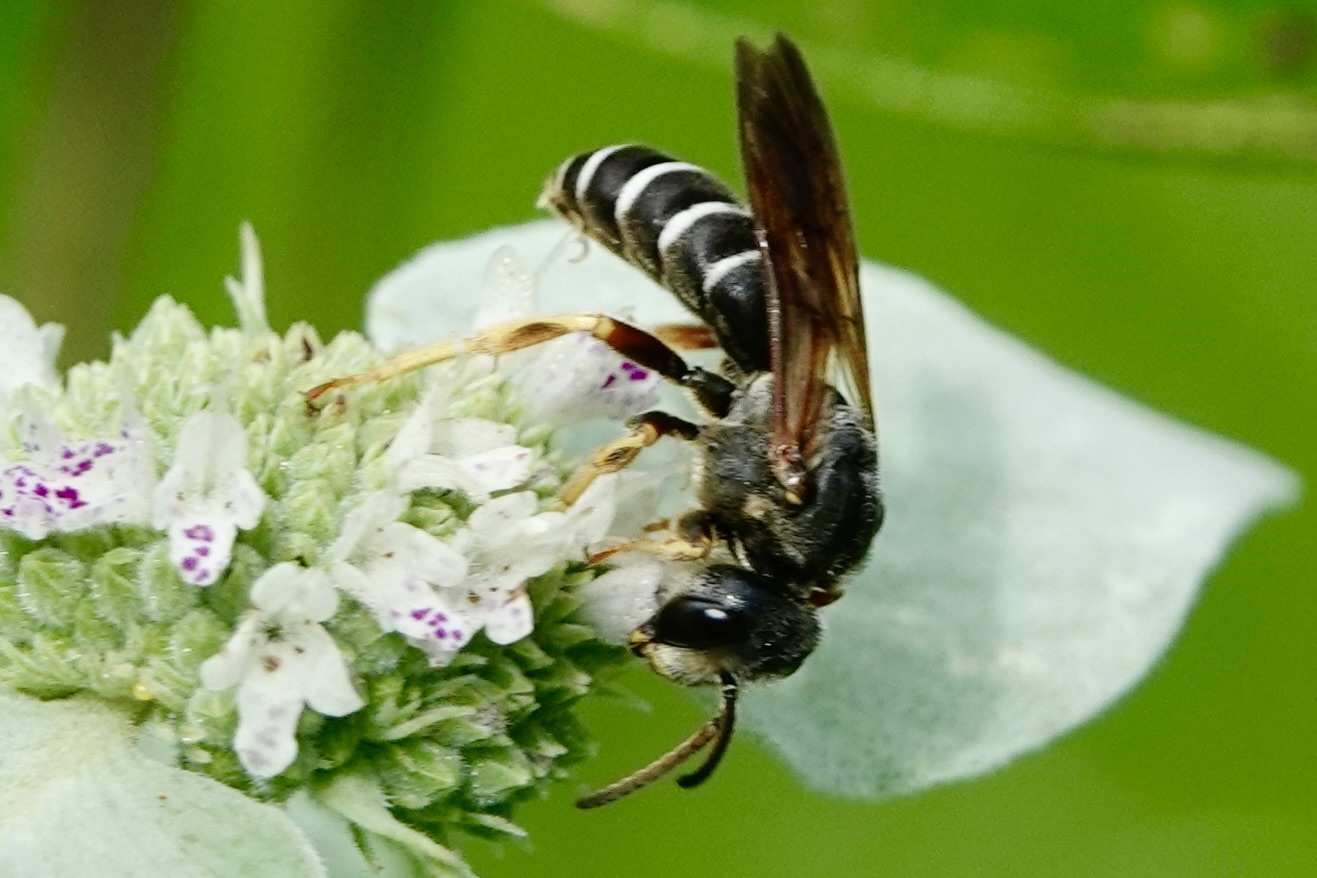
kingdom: Animalia
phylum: Arthropoda
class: Insecta
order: Hymenoptera
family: Halictidae
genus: Halictus
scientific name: Halictus parallelus
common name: Parallel-striped sweat bee
